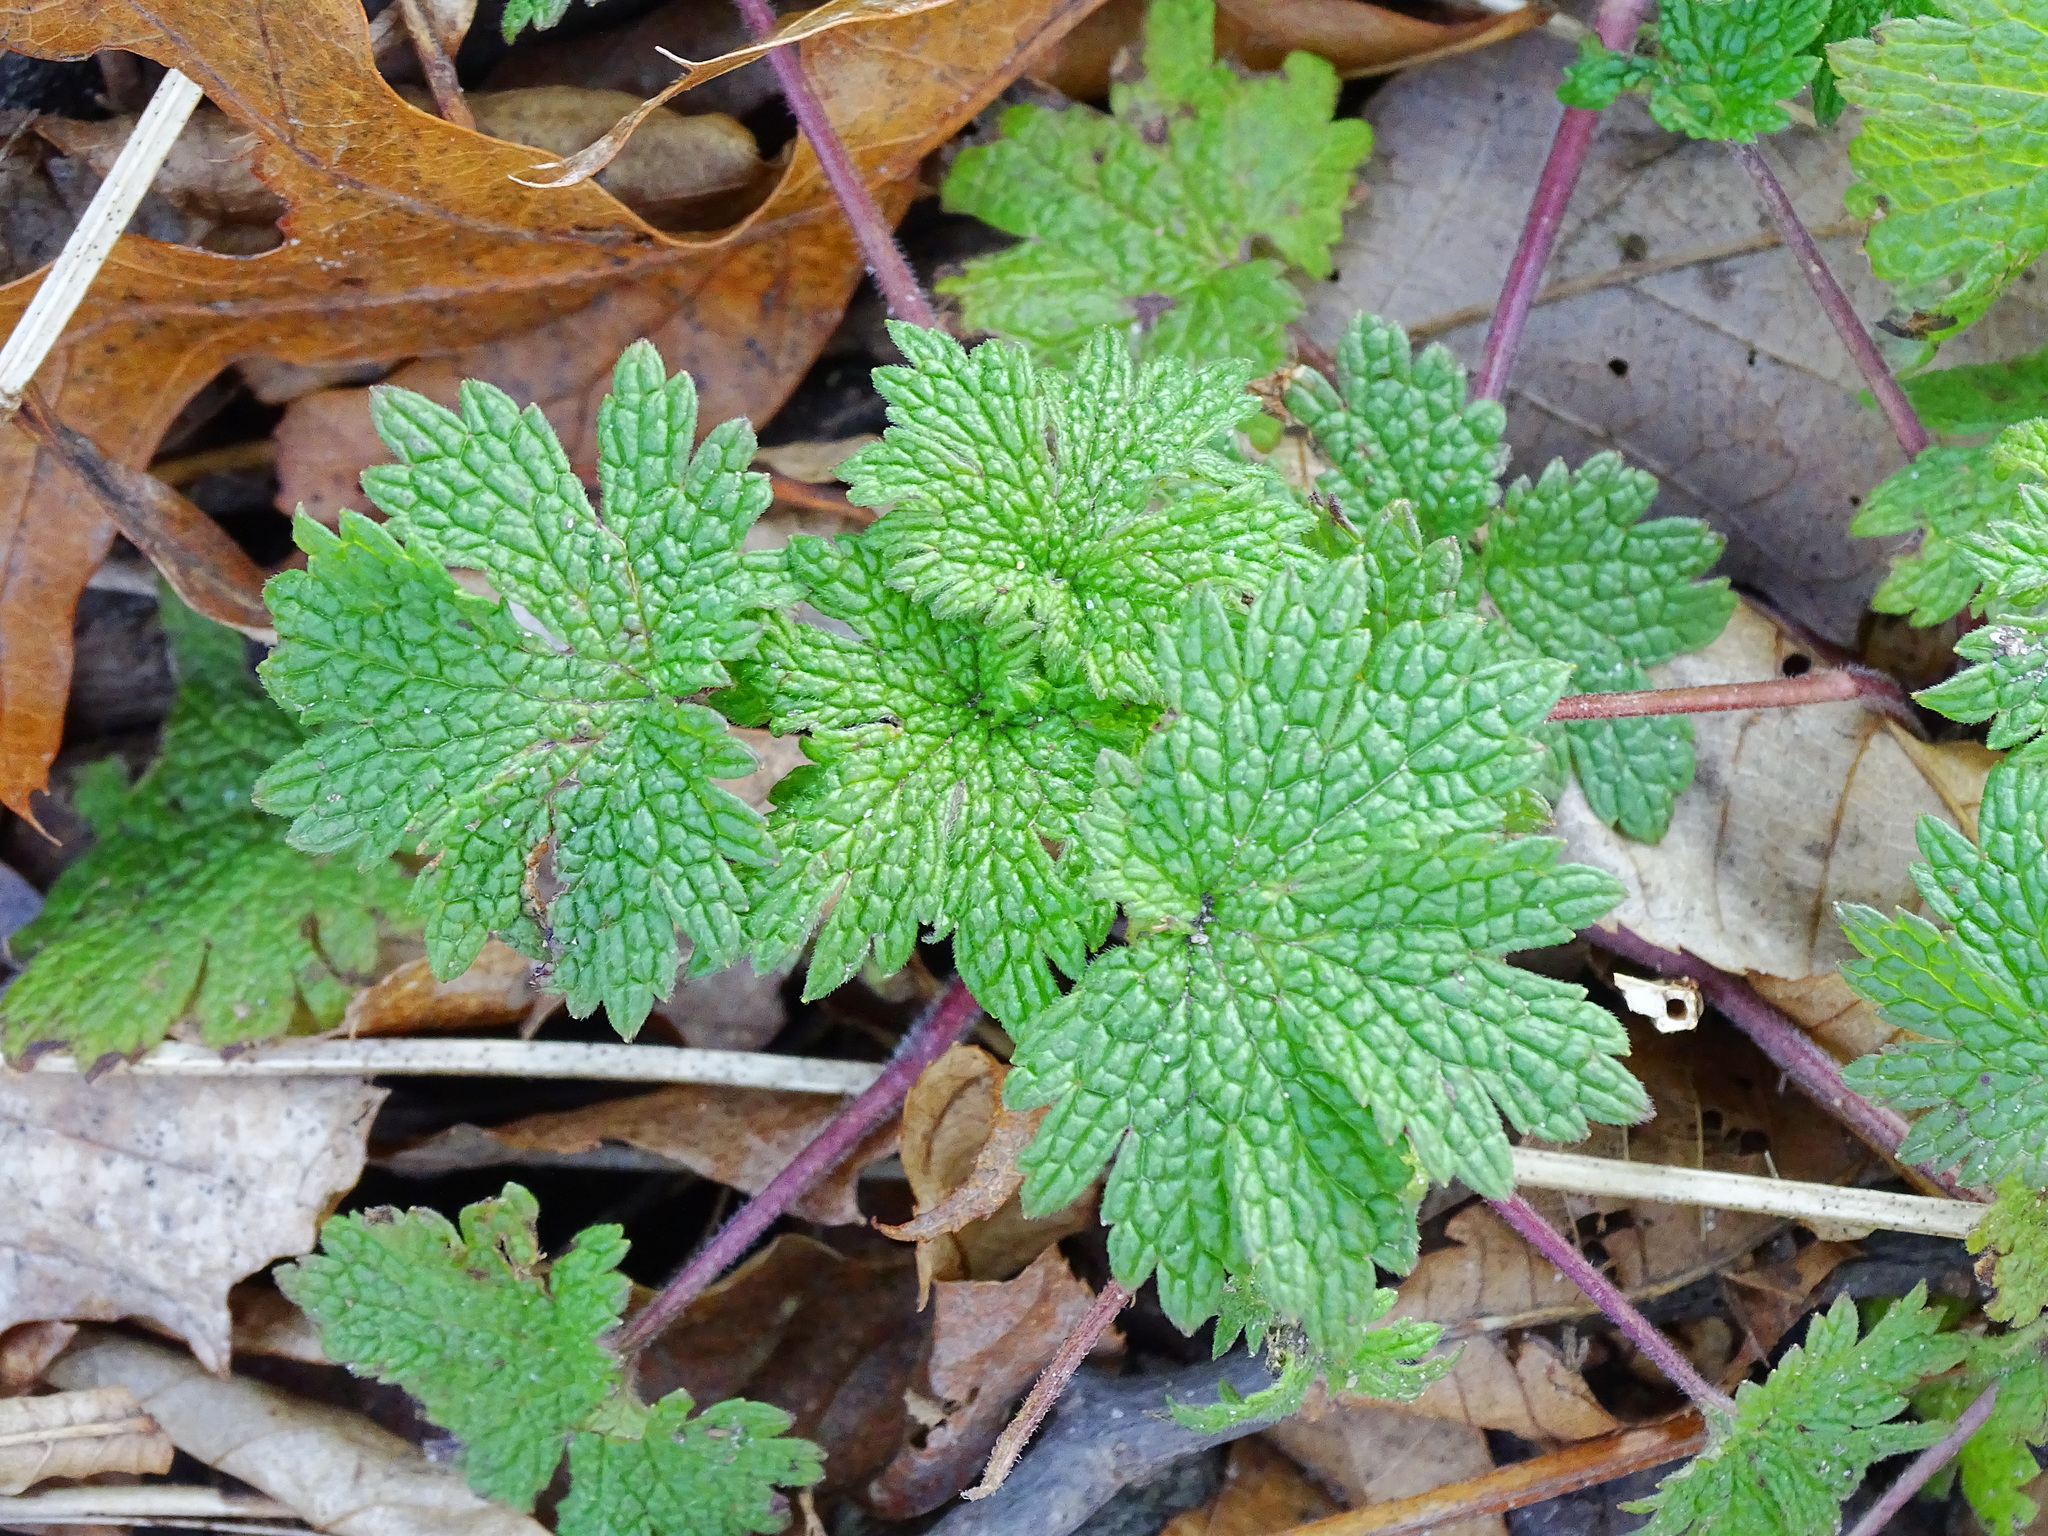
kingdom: Plantae
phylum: Tracheophyta
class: Magnoliopsida
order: Lamiales
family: Lamiaceae
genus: Leonurus
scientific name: Leonurus cardiaca
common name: Motherwort
